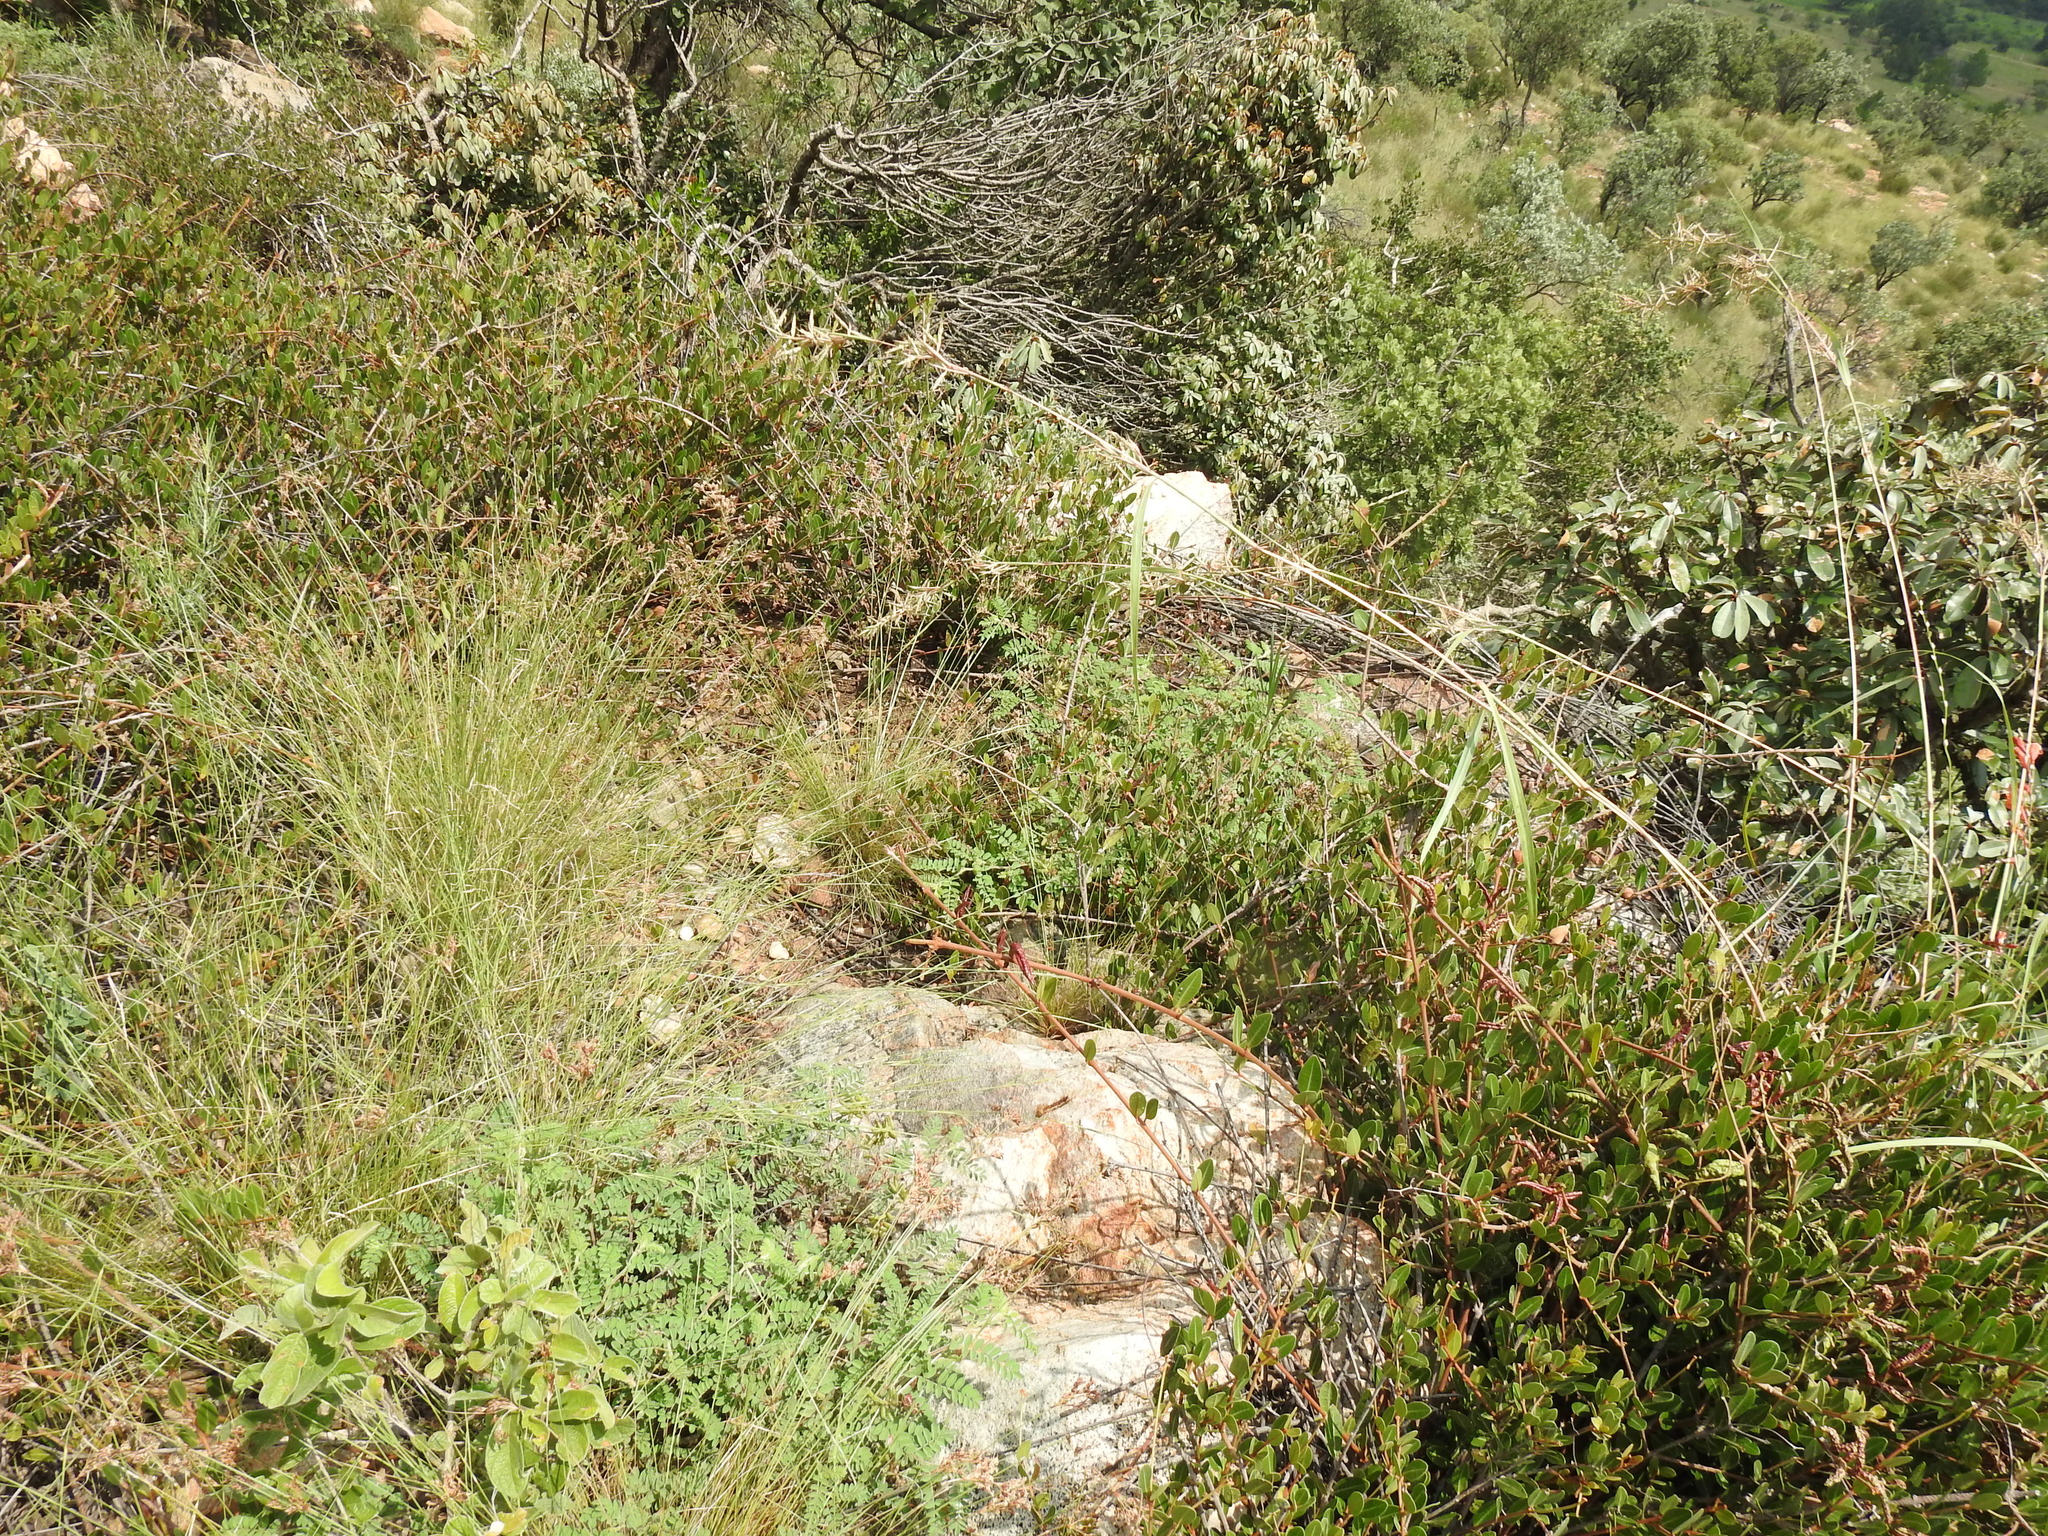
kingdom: Plantae
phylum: Tracheophyta
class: Magnoliopsida
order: Fabales
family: Fabaceae
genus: Indigofera
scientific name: Indigofera comosa
